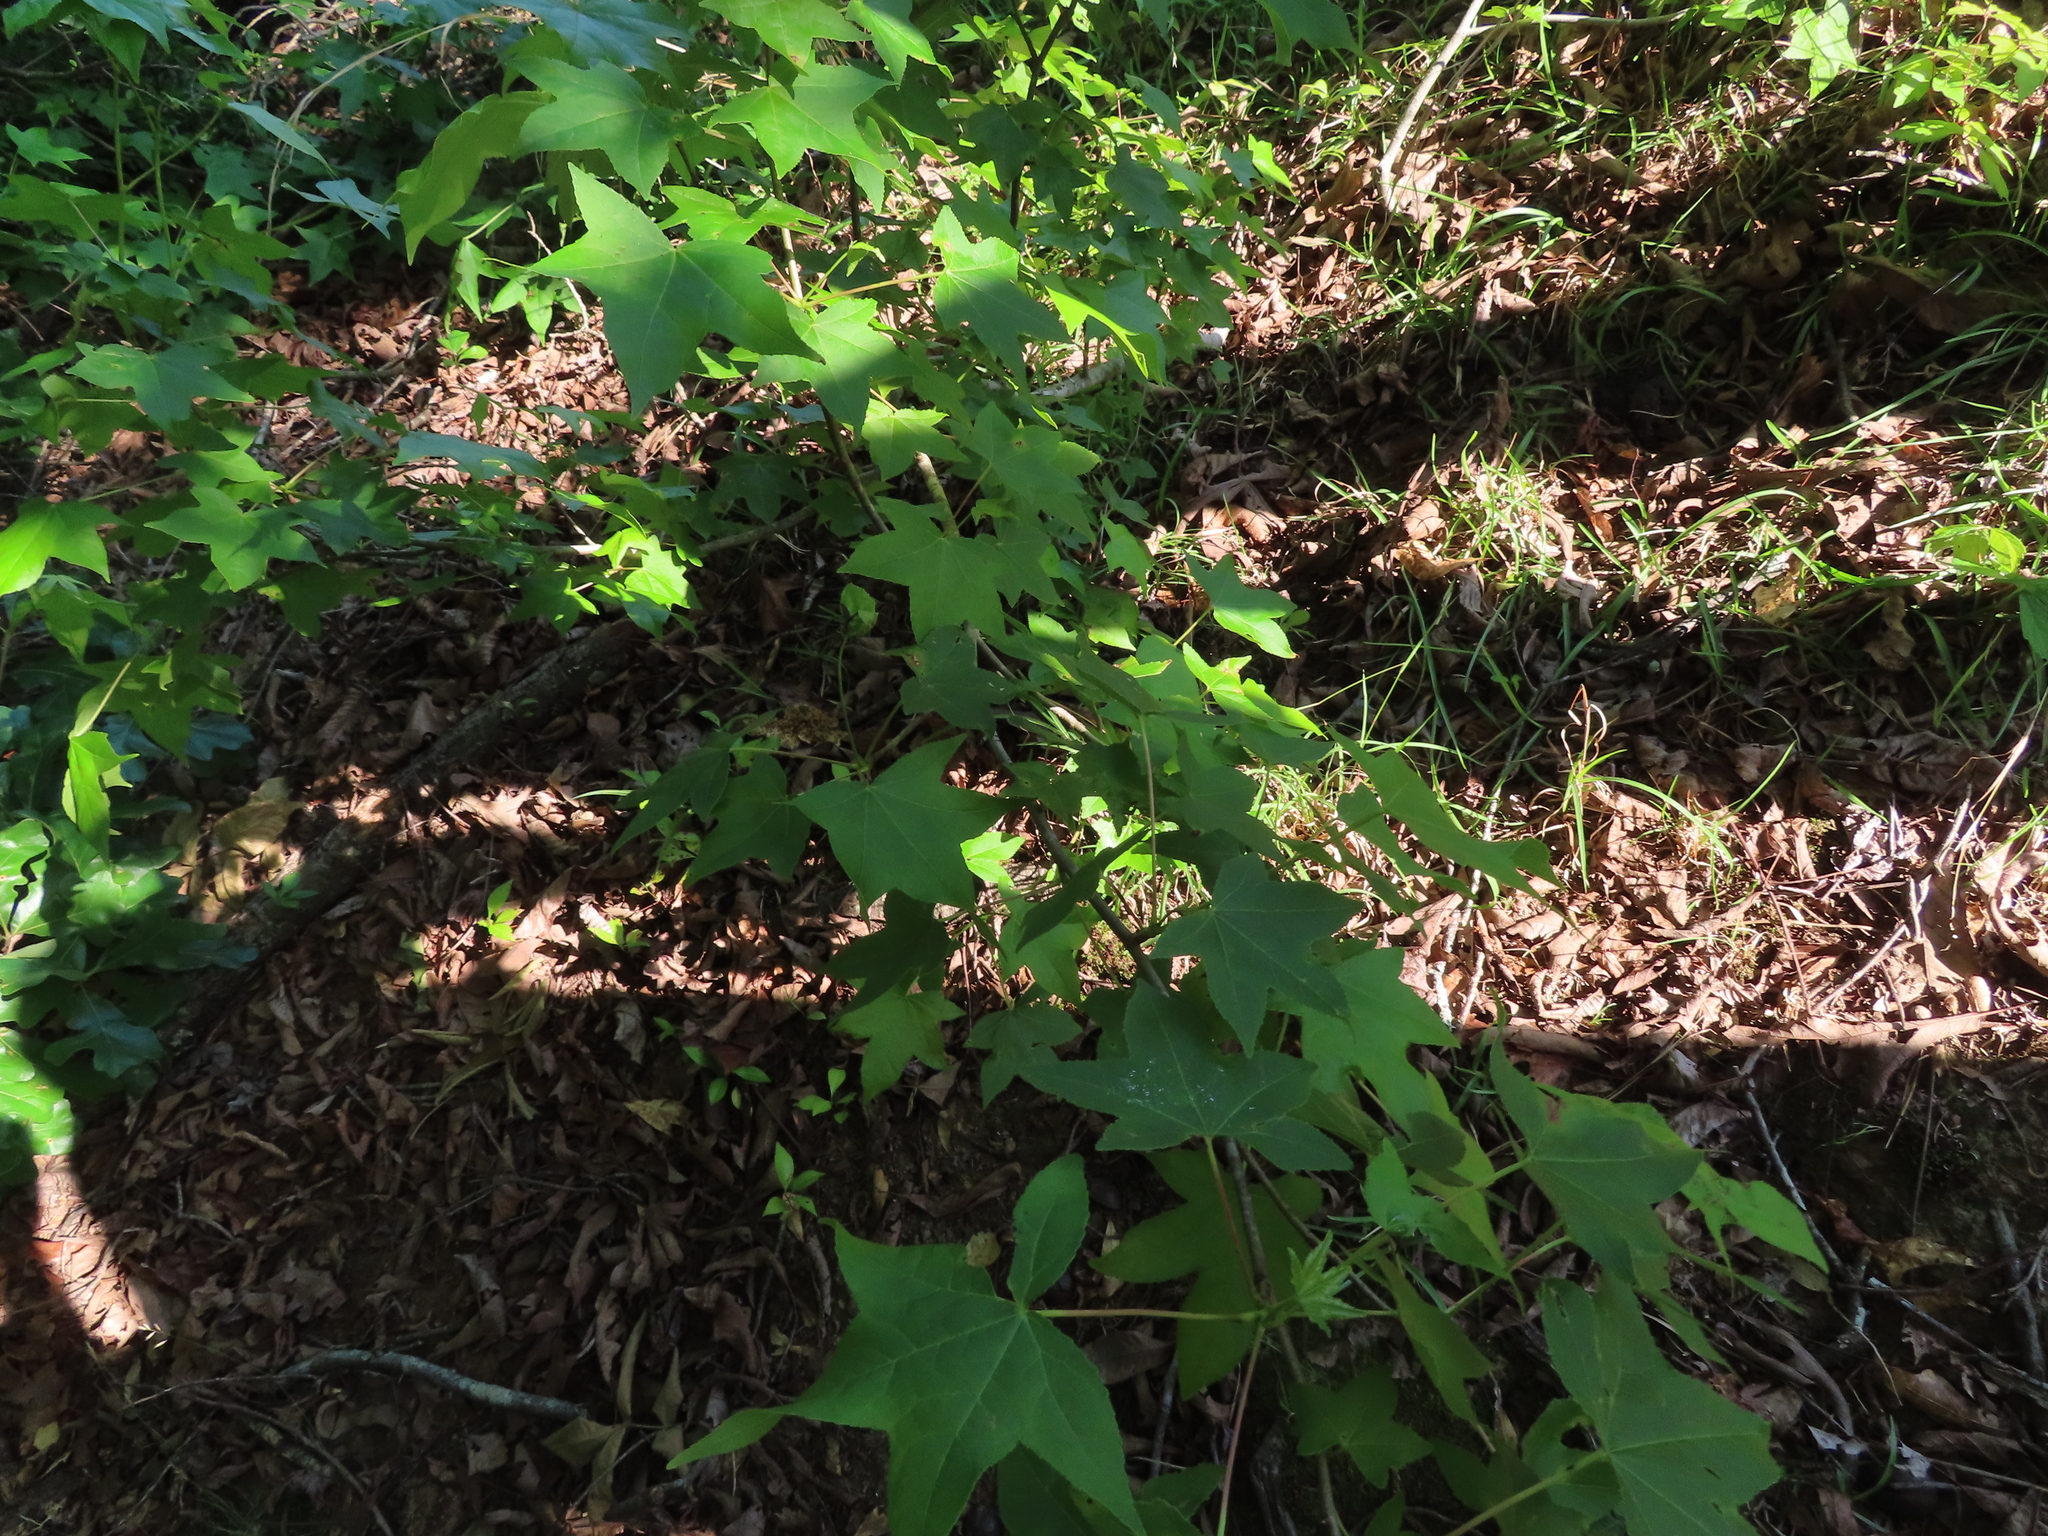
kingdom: Plantae
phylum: Tracheophyta
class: Magnoliopsida
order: Saxifragales
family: Altingiaceae
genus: Liquidambar
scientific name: Liquidambar styraciflua
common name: Sweet gum
